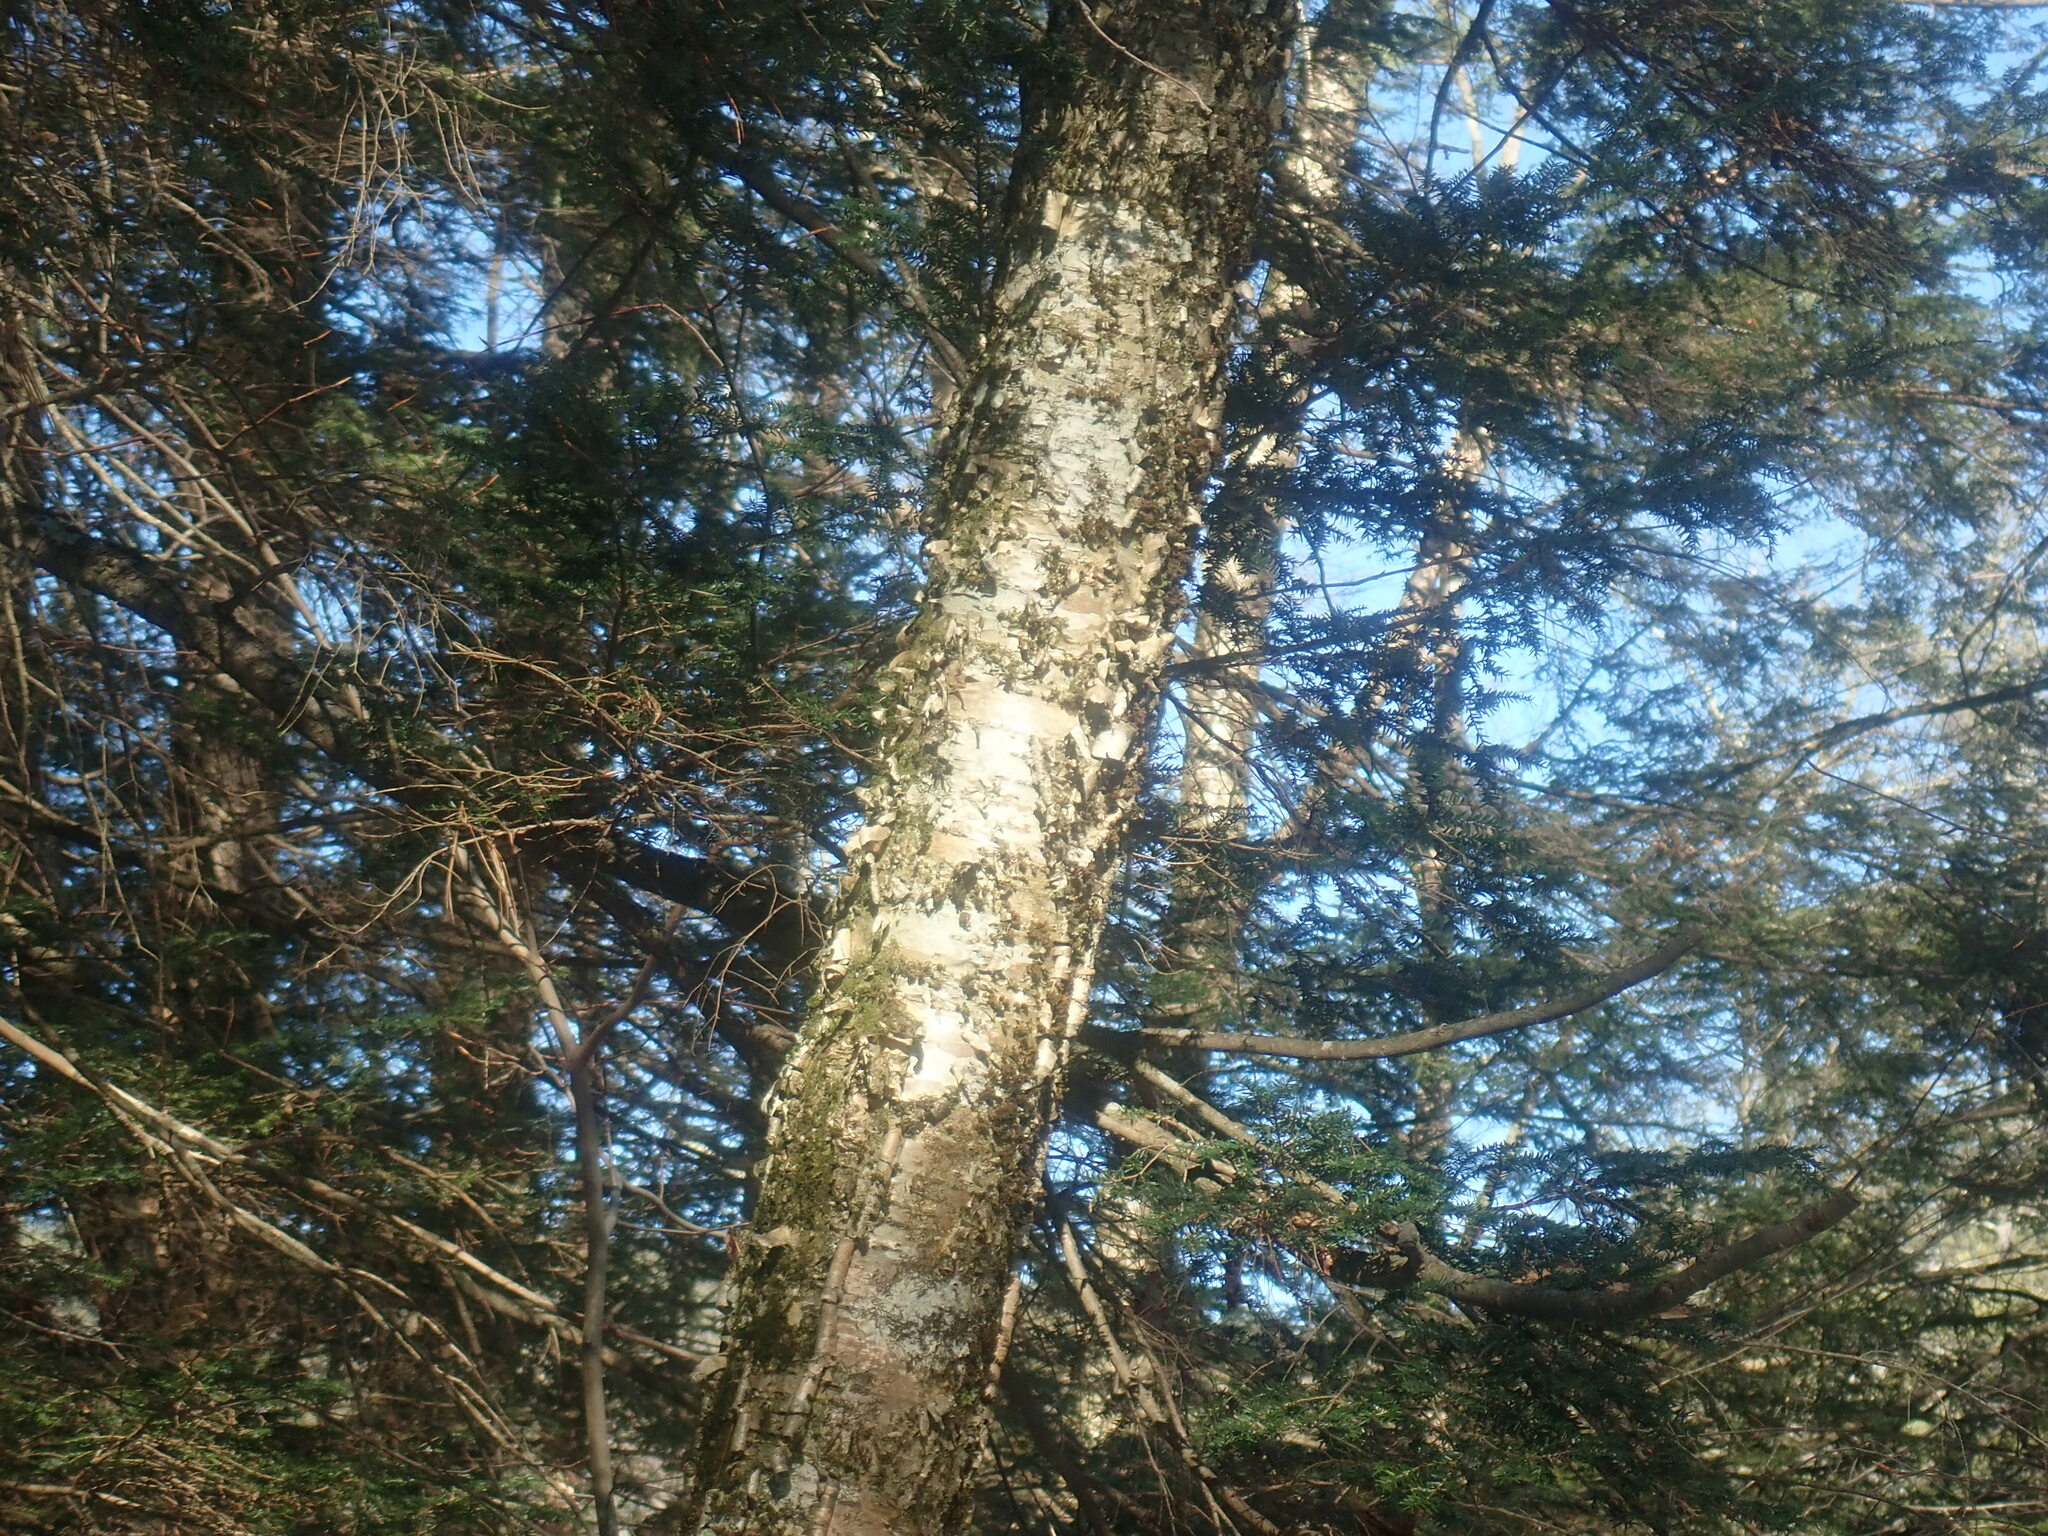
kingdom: Plantae
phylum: Tracheophyta
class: Magnoliopsida
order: Fagales
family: Betulaceae
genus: Betula
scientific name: Betula alleghaniensis
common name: Yellow birch
